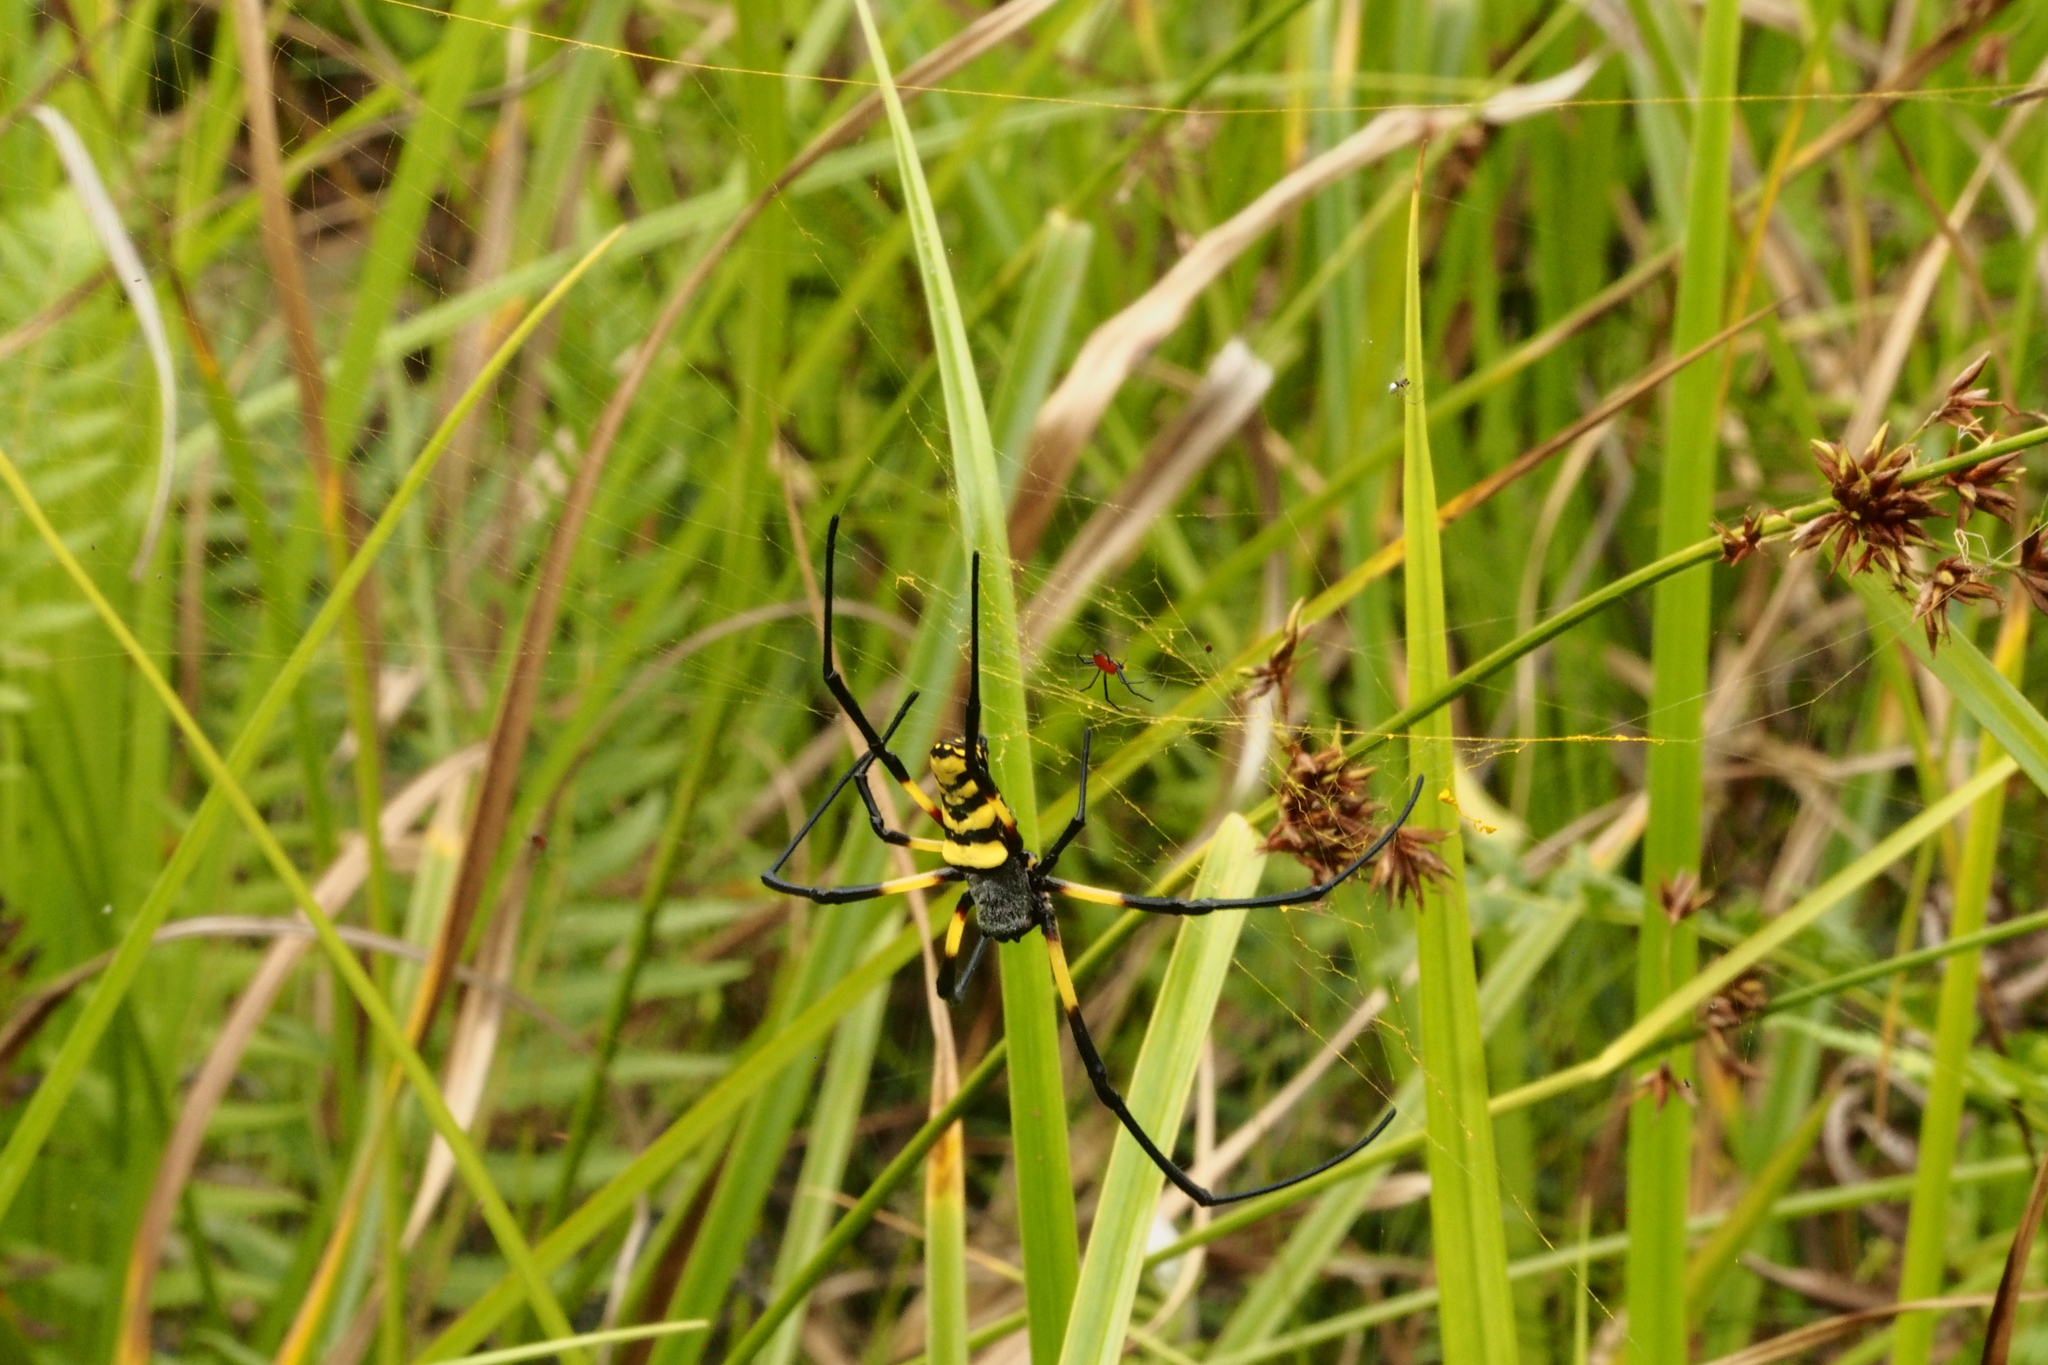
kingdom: Animalia
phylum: Arthropoda
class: Arachnida
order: Araneae
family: Araneidae
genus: Trichonephila
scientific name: Trichonephila turneri
